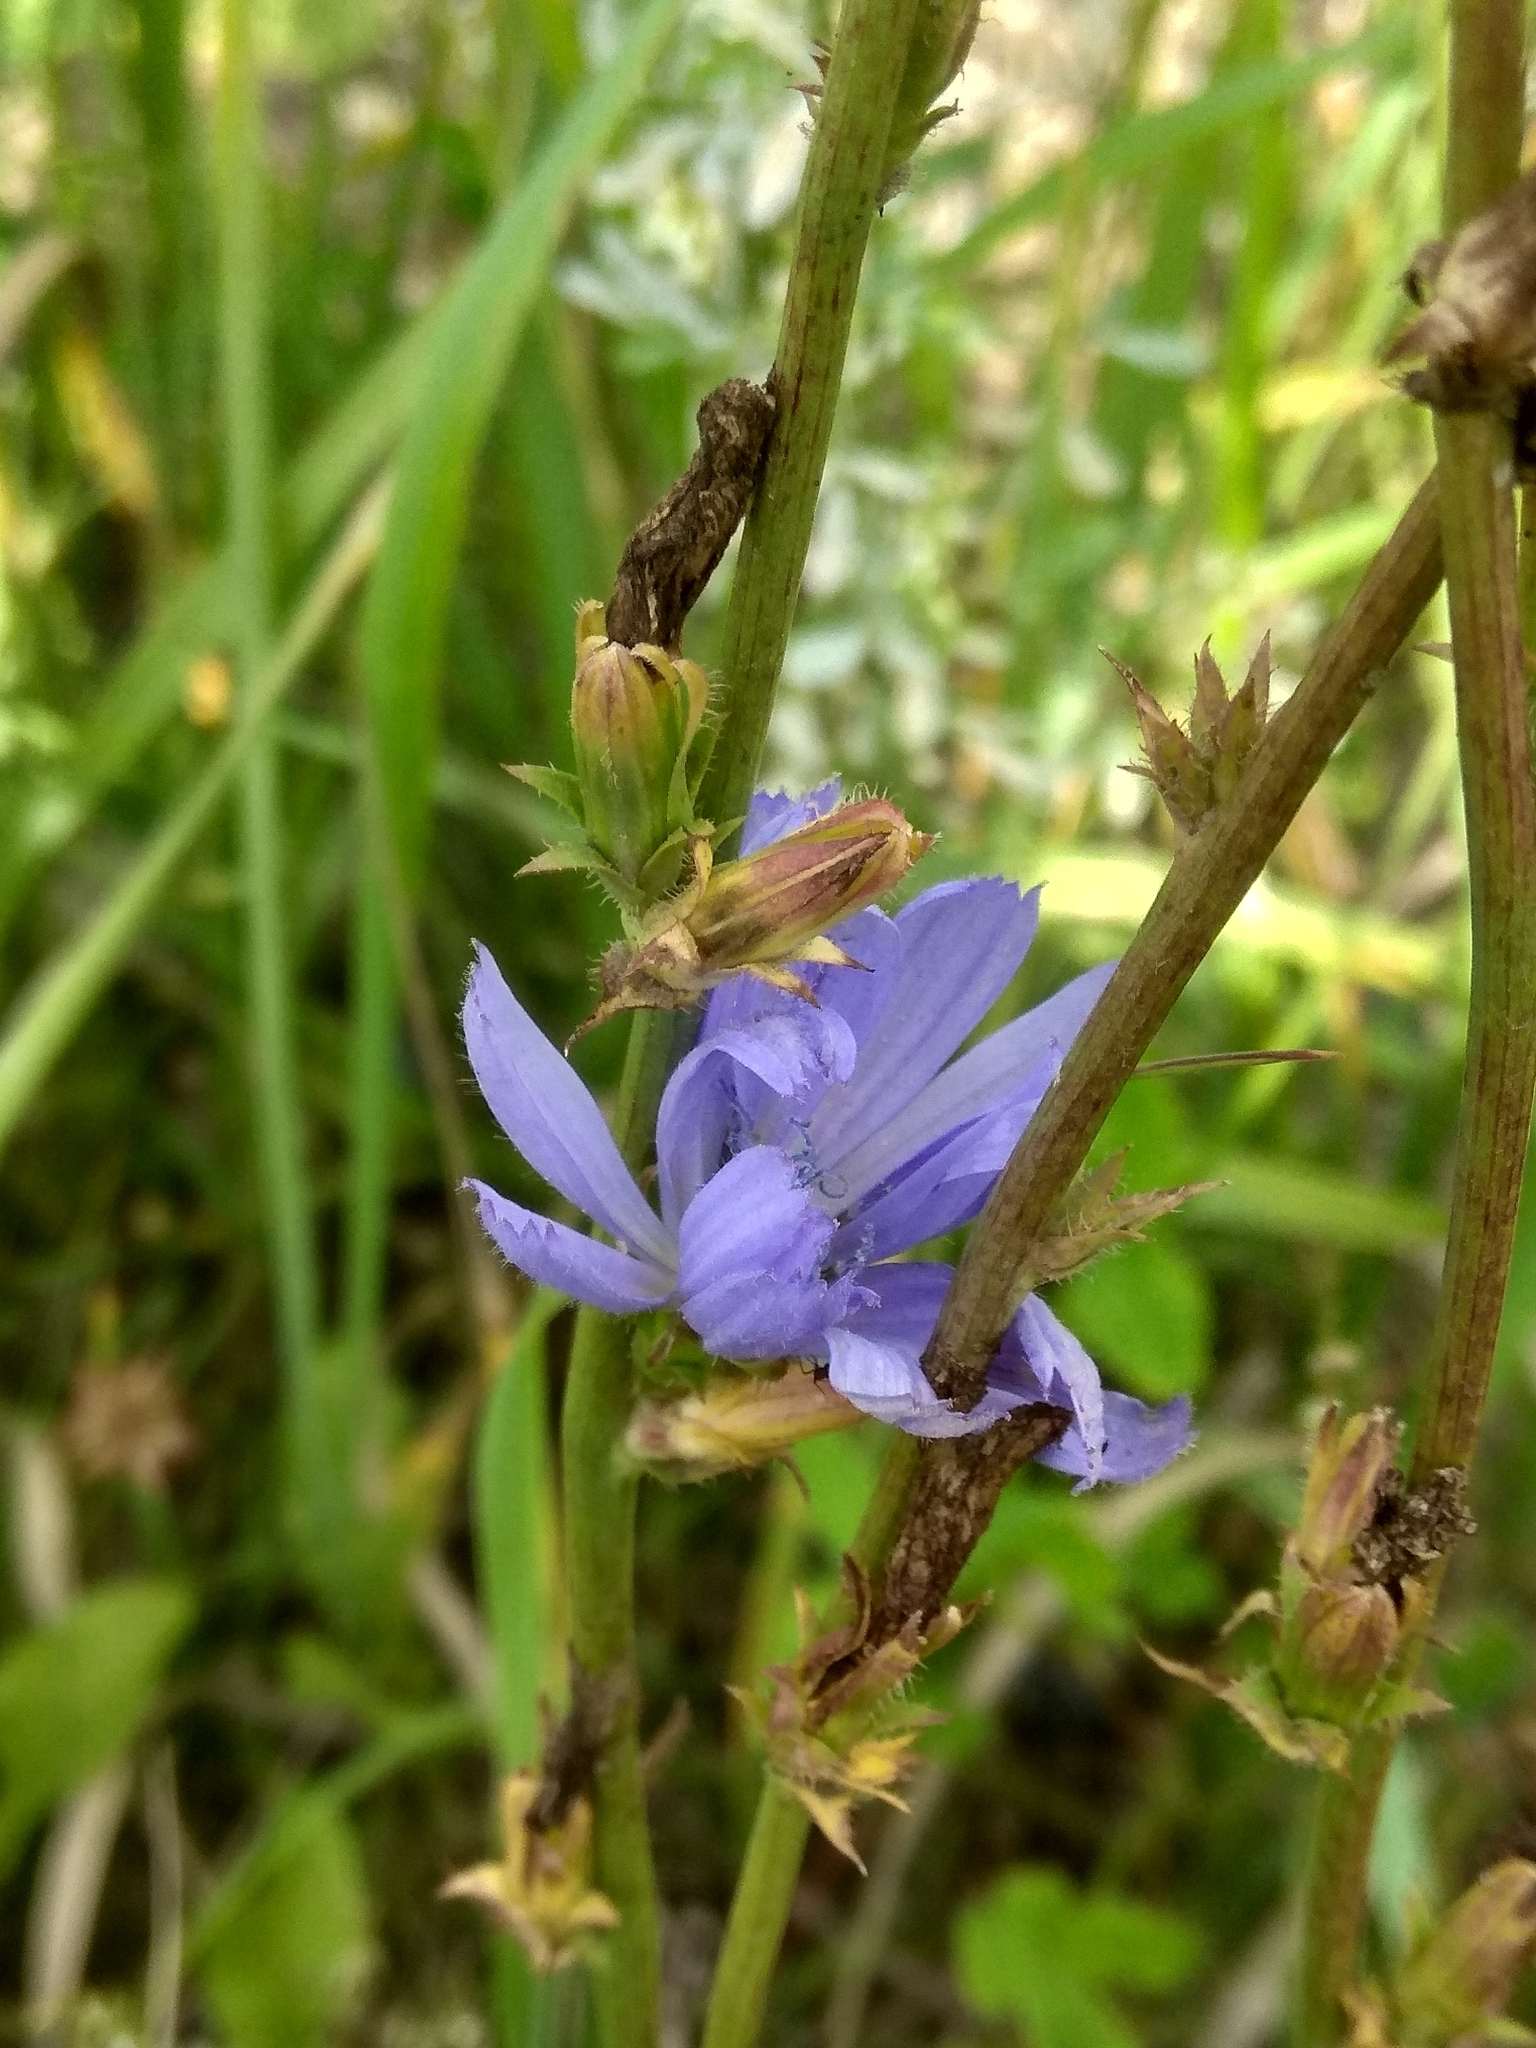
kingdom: Plantae
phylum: Tracheophyta
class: Magnoliopsida
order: Asterales
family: Asteraceae
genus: Cichorium
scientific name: Cichorium intybus
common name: Chicory
